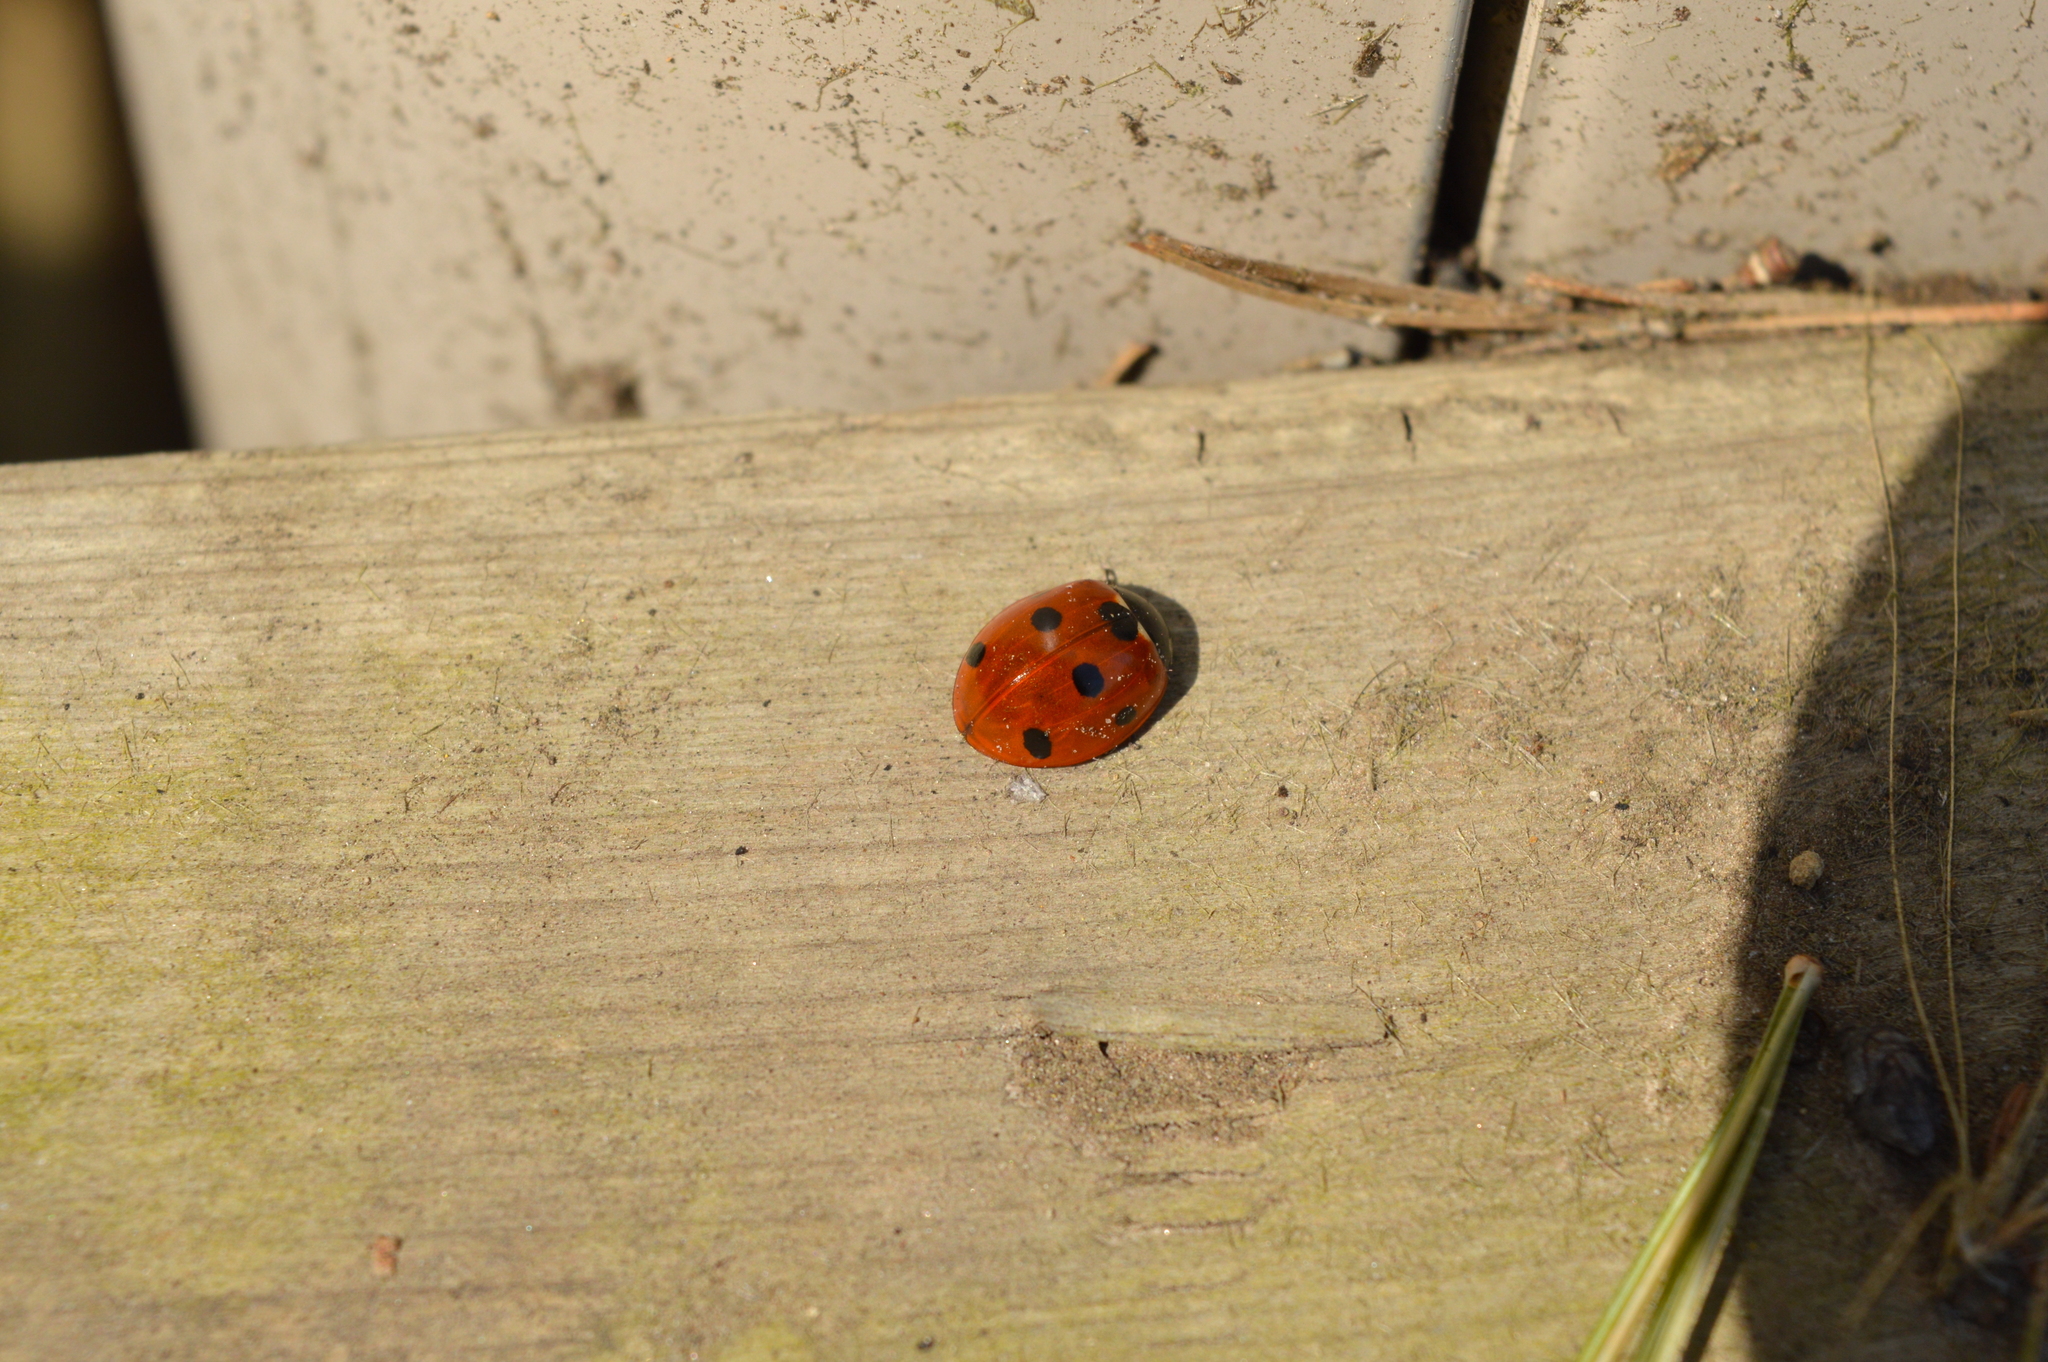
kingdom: Animalia
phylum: Arthropoda
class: Insecta
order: Coleoptera
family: Coccinellidae
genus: Coccinella
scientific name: Coccinella septempunctata
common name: Sevenspotted lady beetle
